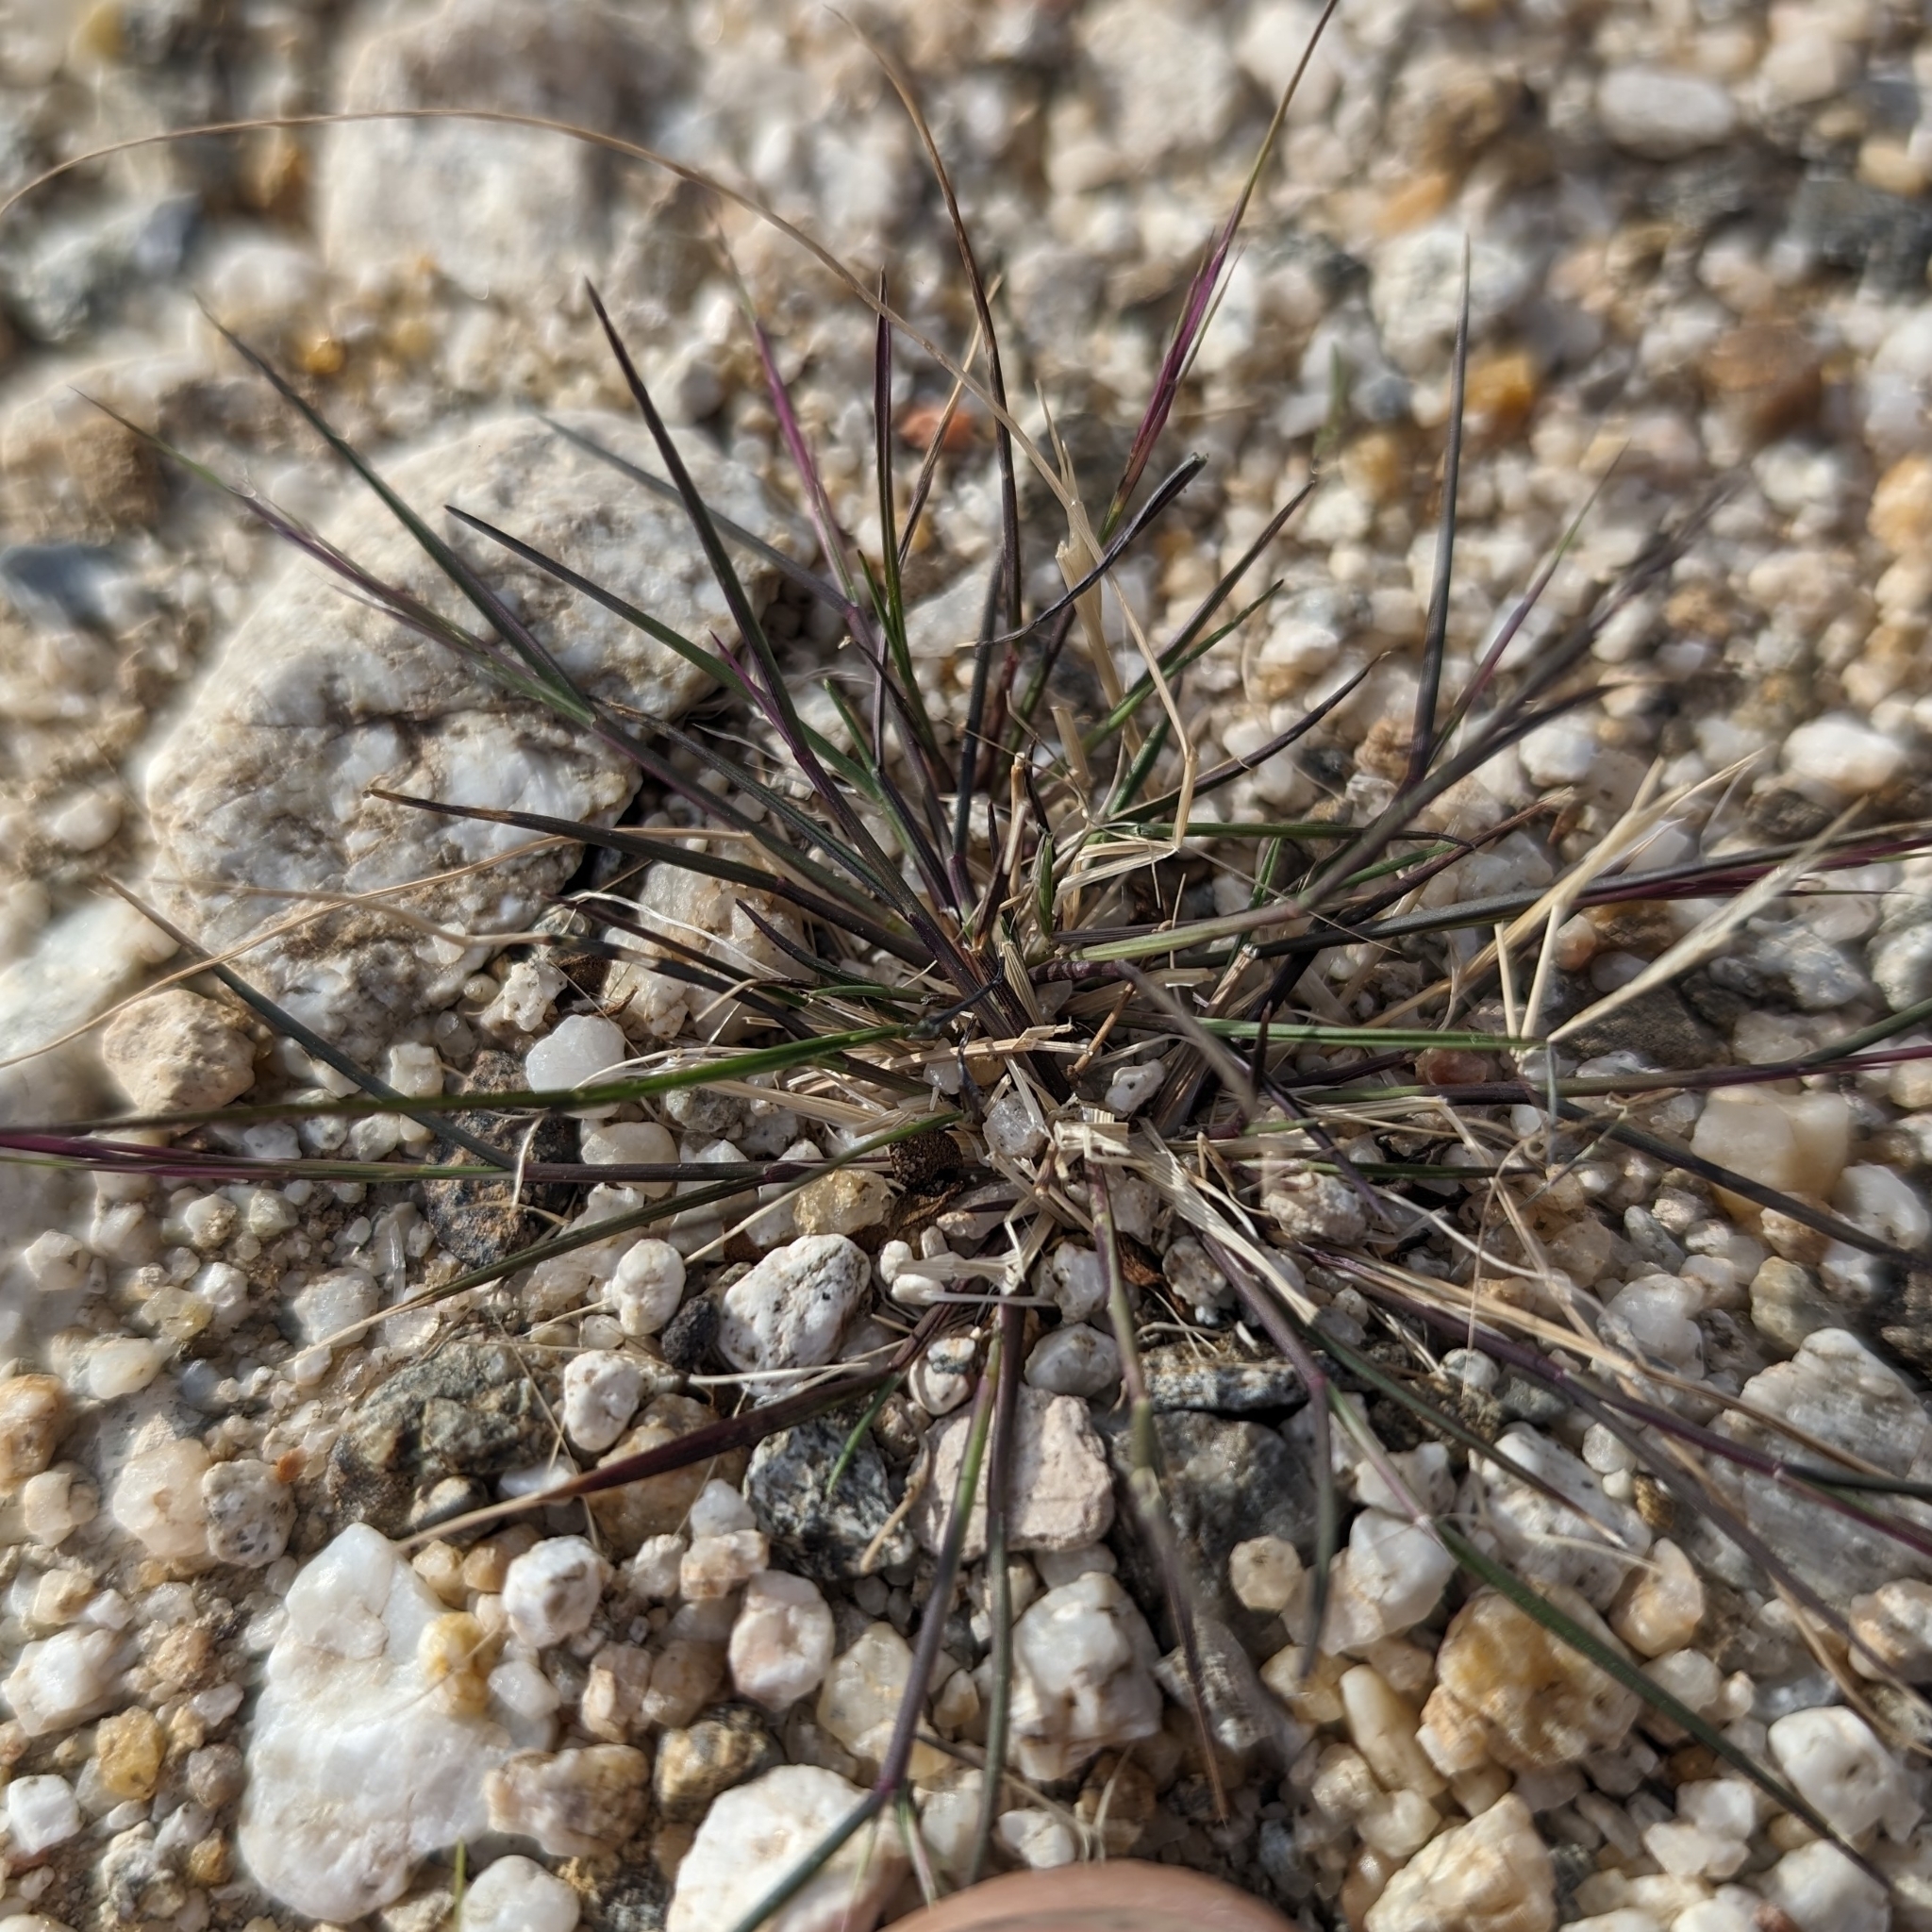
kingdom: Plantae
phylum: Tracheophyta
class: Liliopsida
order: Poales
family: Poaceae
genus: Aristida
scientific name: Aristida adscensionis
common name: Sixweeks threeawn
